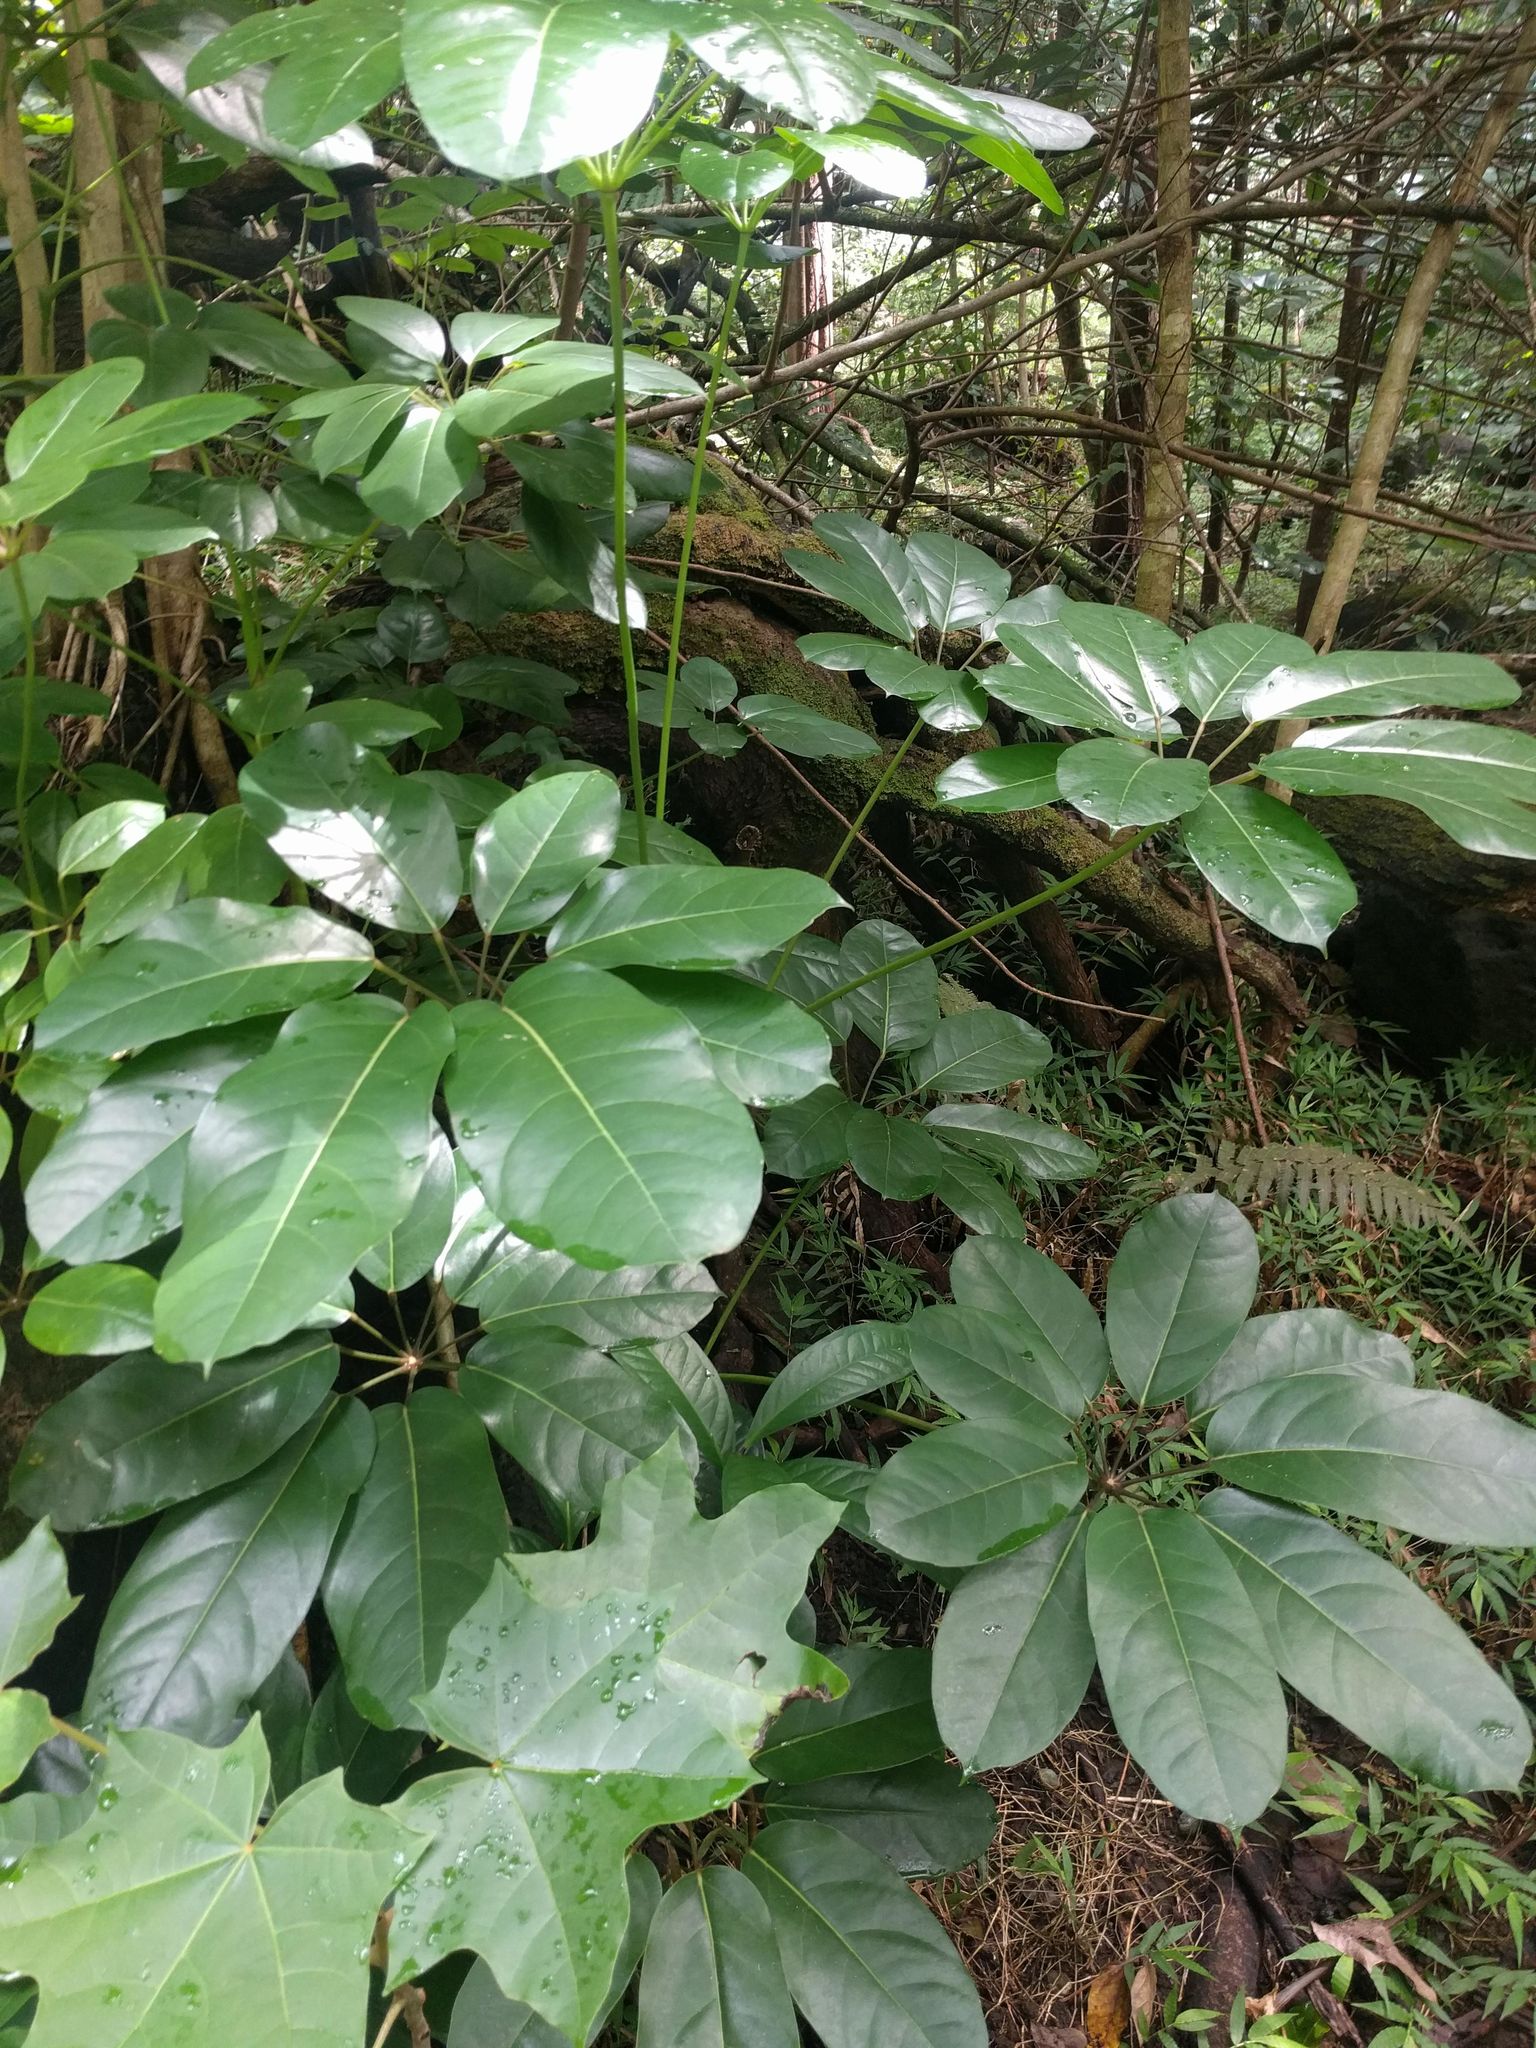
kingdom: Plantae
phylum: Tracheophyta
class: Magnoliopsida
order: Apiales
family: Araliaceae
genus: Heptapleurum
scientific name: Heptapleurum actinophyllum
